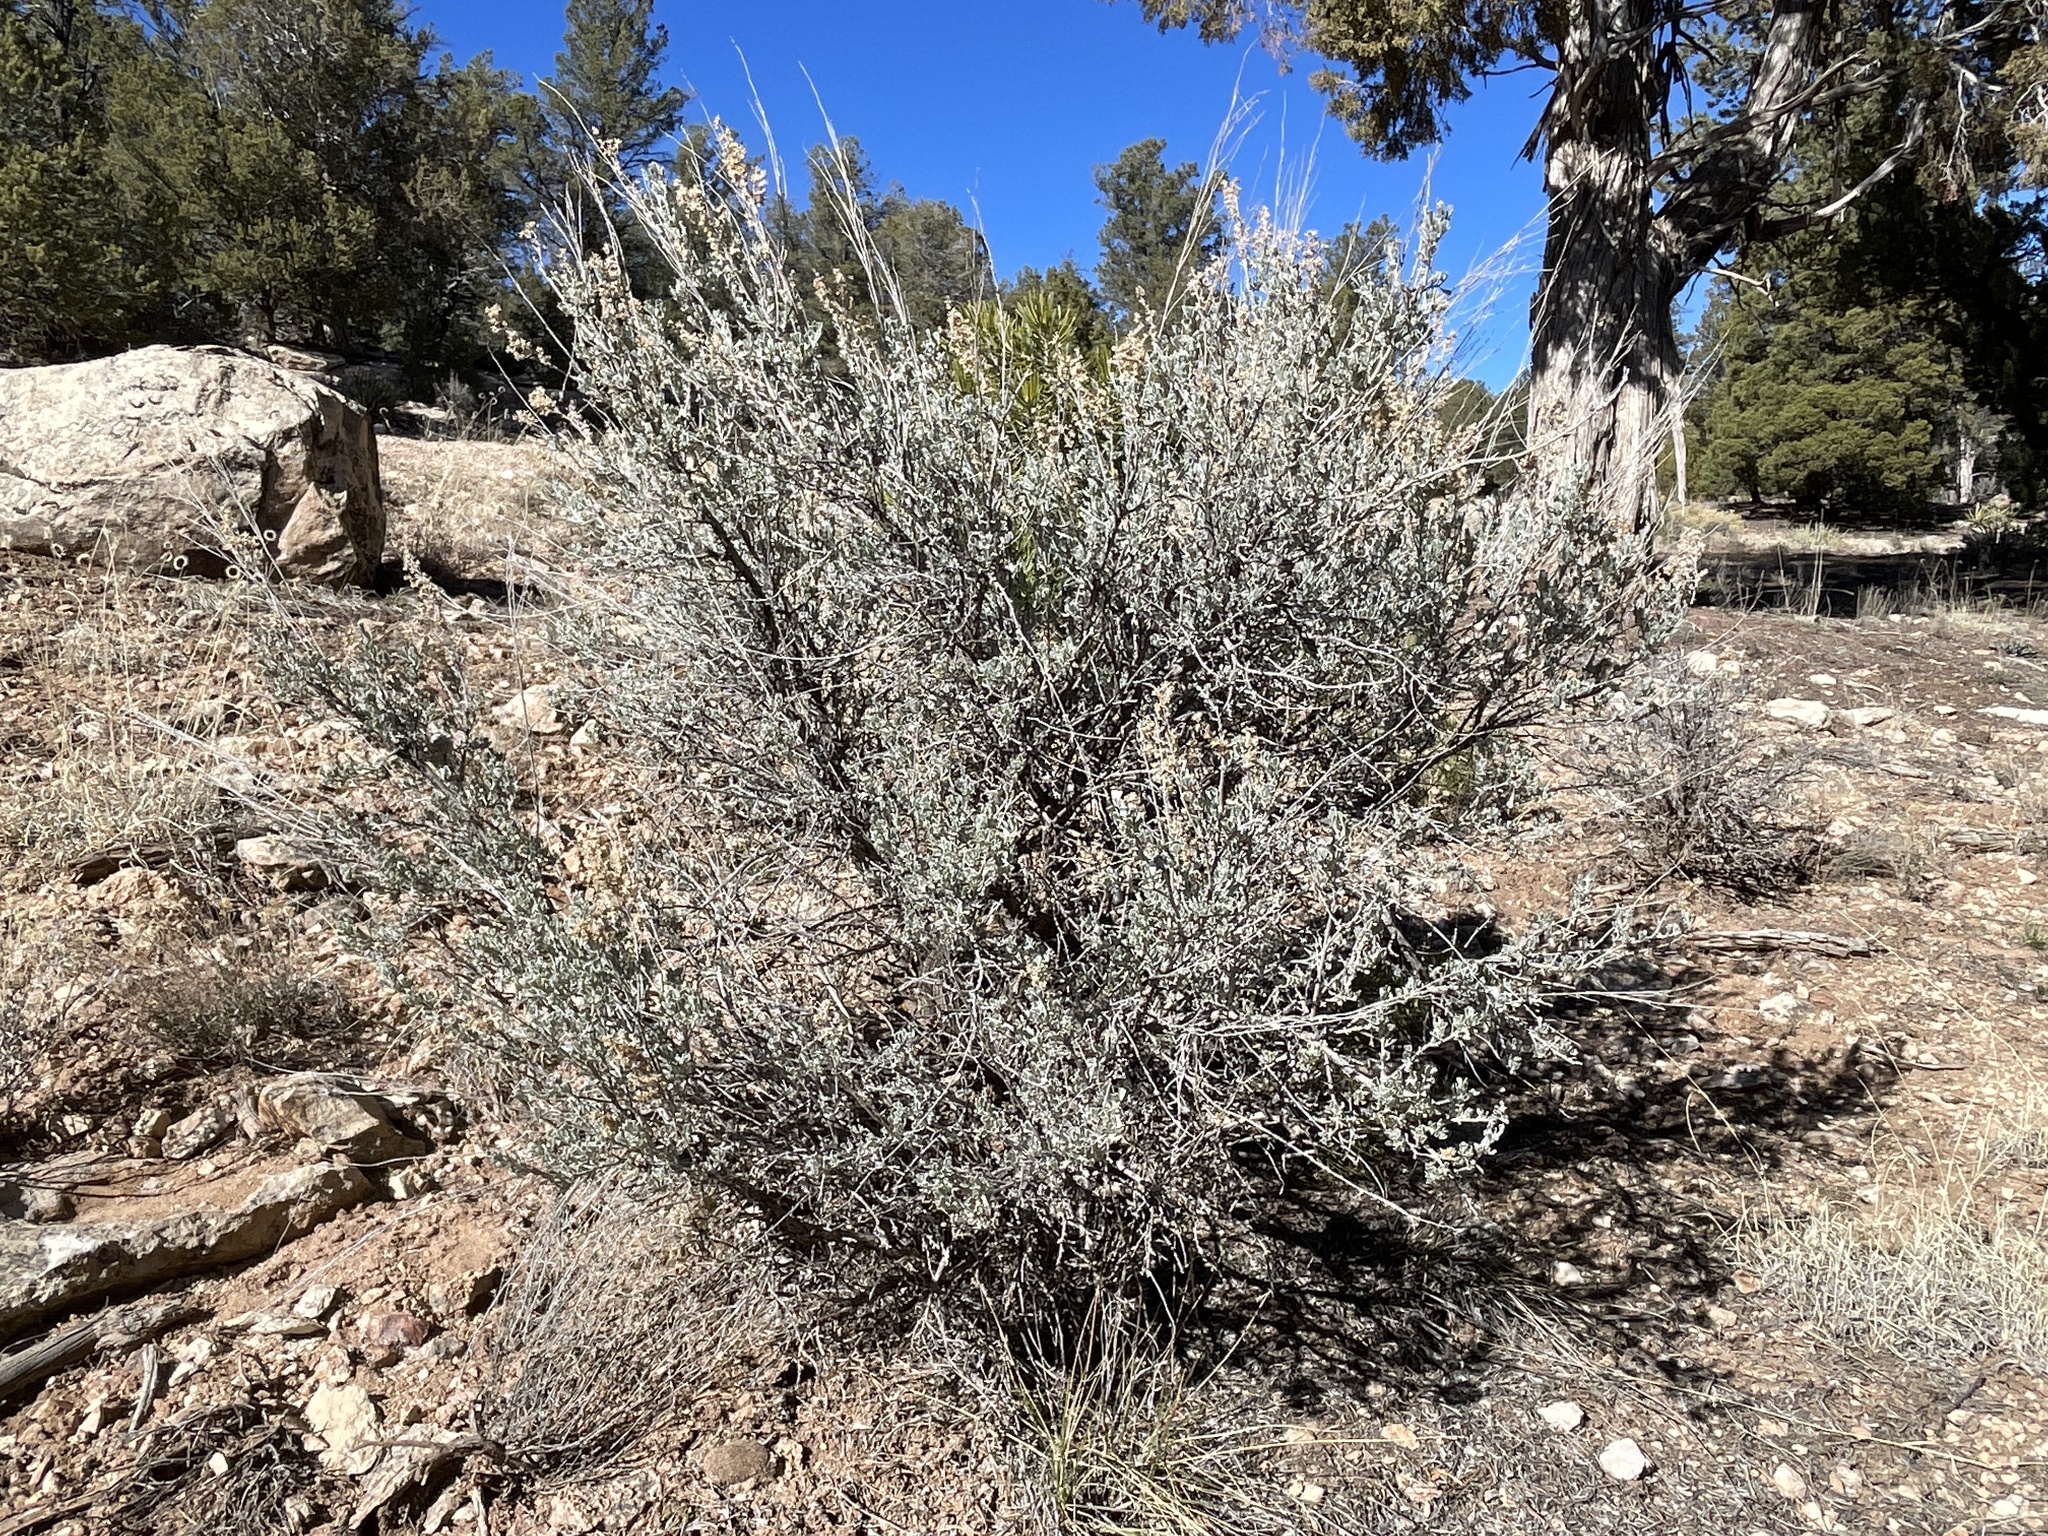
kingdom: Plantae
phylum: Tracheophyta
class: Magnoliopsida
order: Asterales
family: Asteraceae
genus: Artemisia
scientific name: Artemisia tridentata
